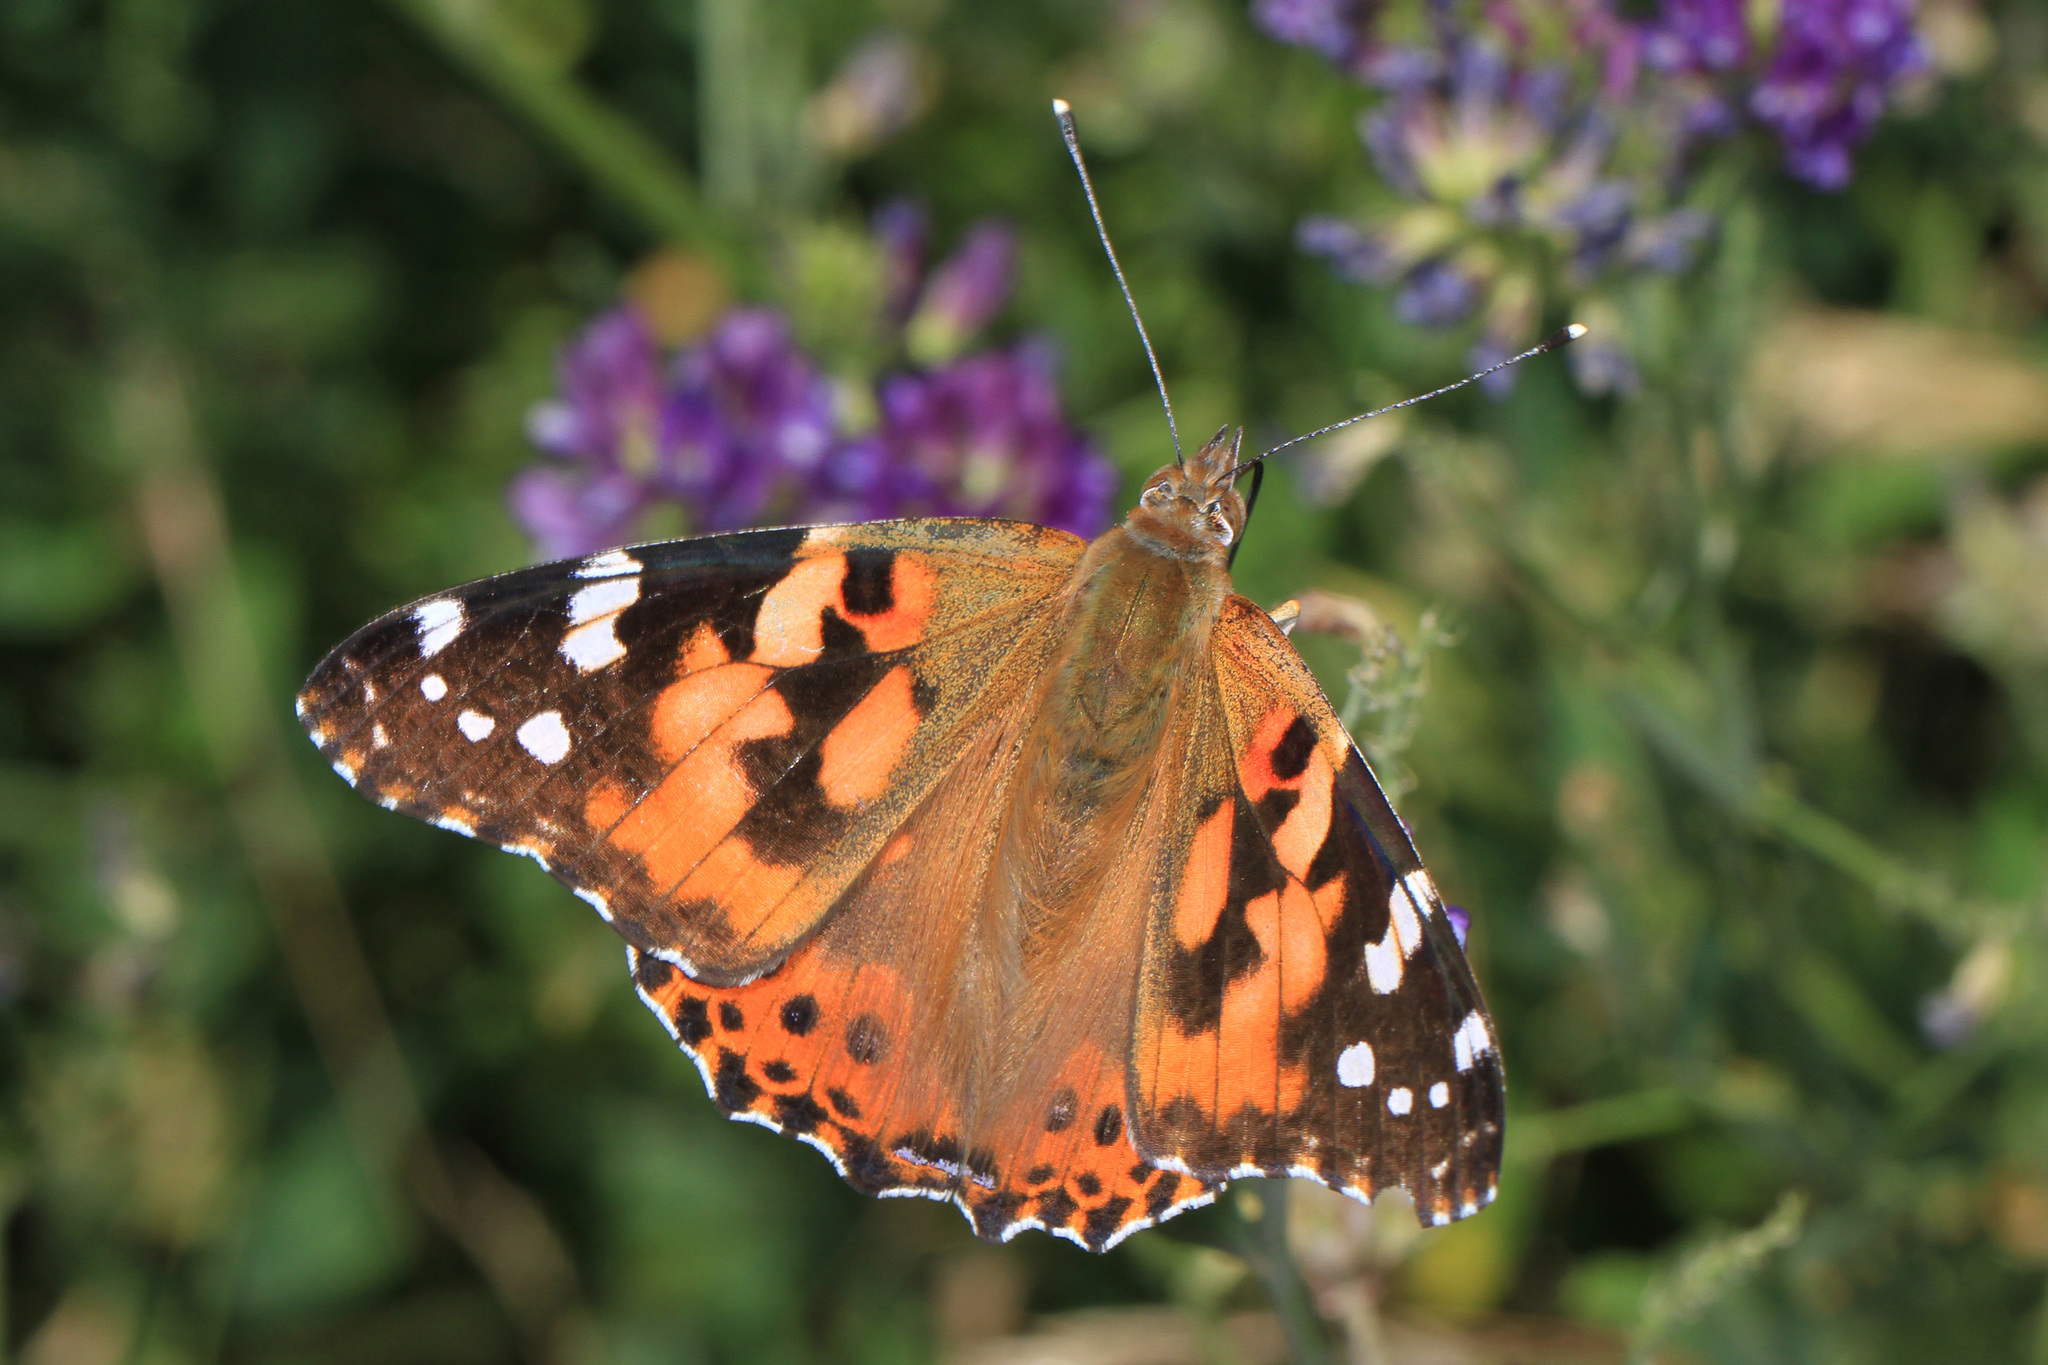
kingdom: Animalia
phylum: Arthropoda
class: Insecta
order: Lepidoptera
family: Nymphalidae
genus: Vanessa
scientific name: Vanessa cardui
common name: Painted lady
